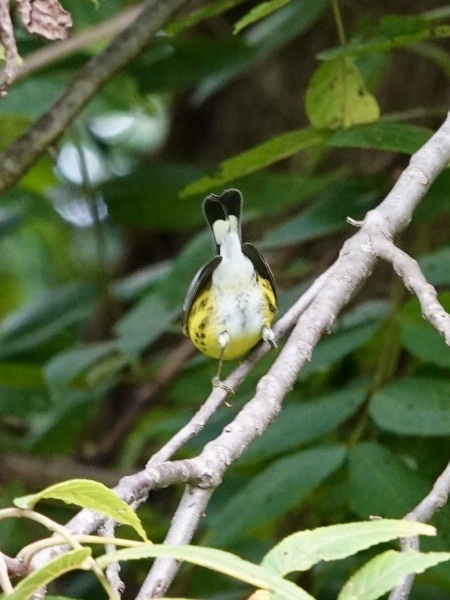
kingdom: Animalia
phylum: Chordata
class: Aves
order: Passeriformes
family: Parulidae
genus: Setophaga
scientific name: Setophaga magnolia
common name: Magnolia warbler
